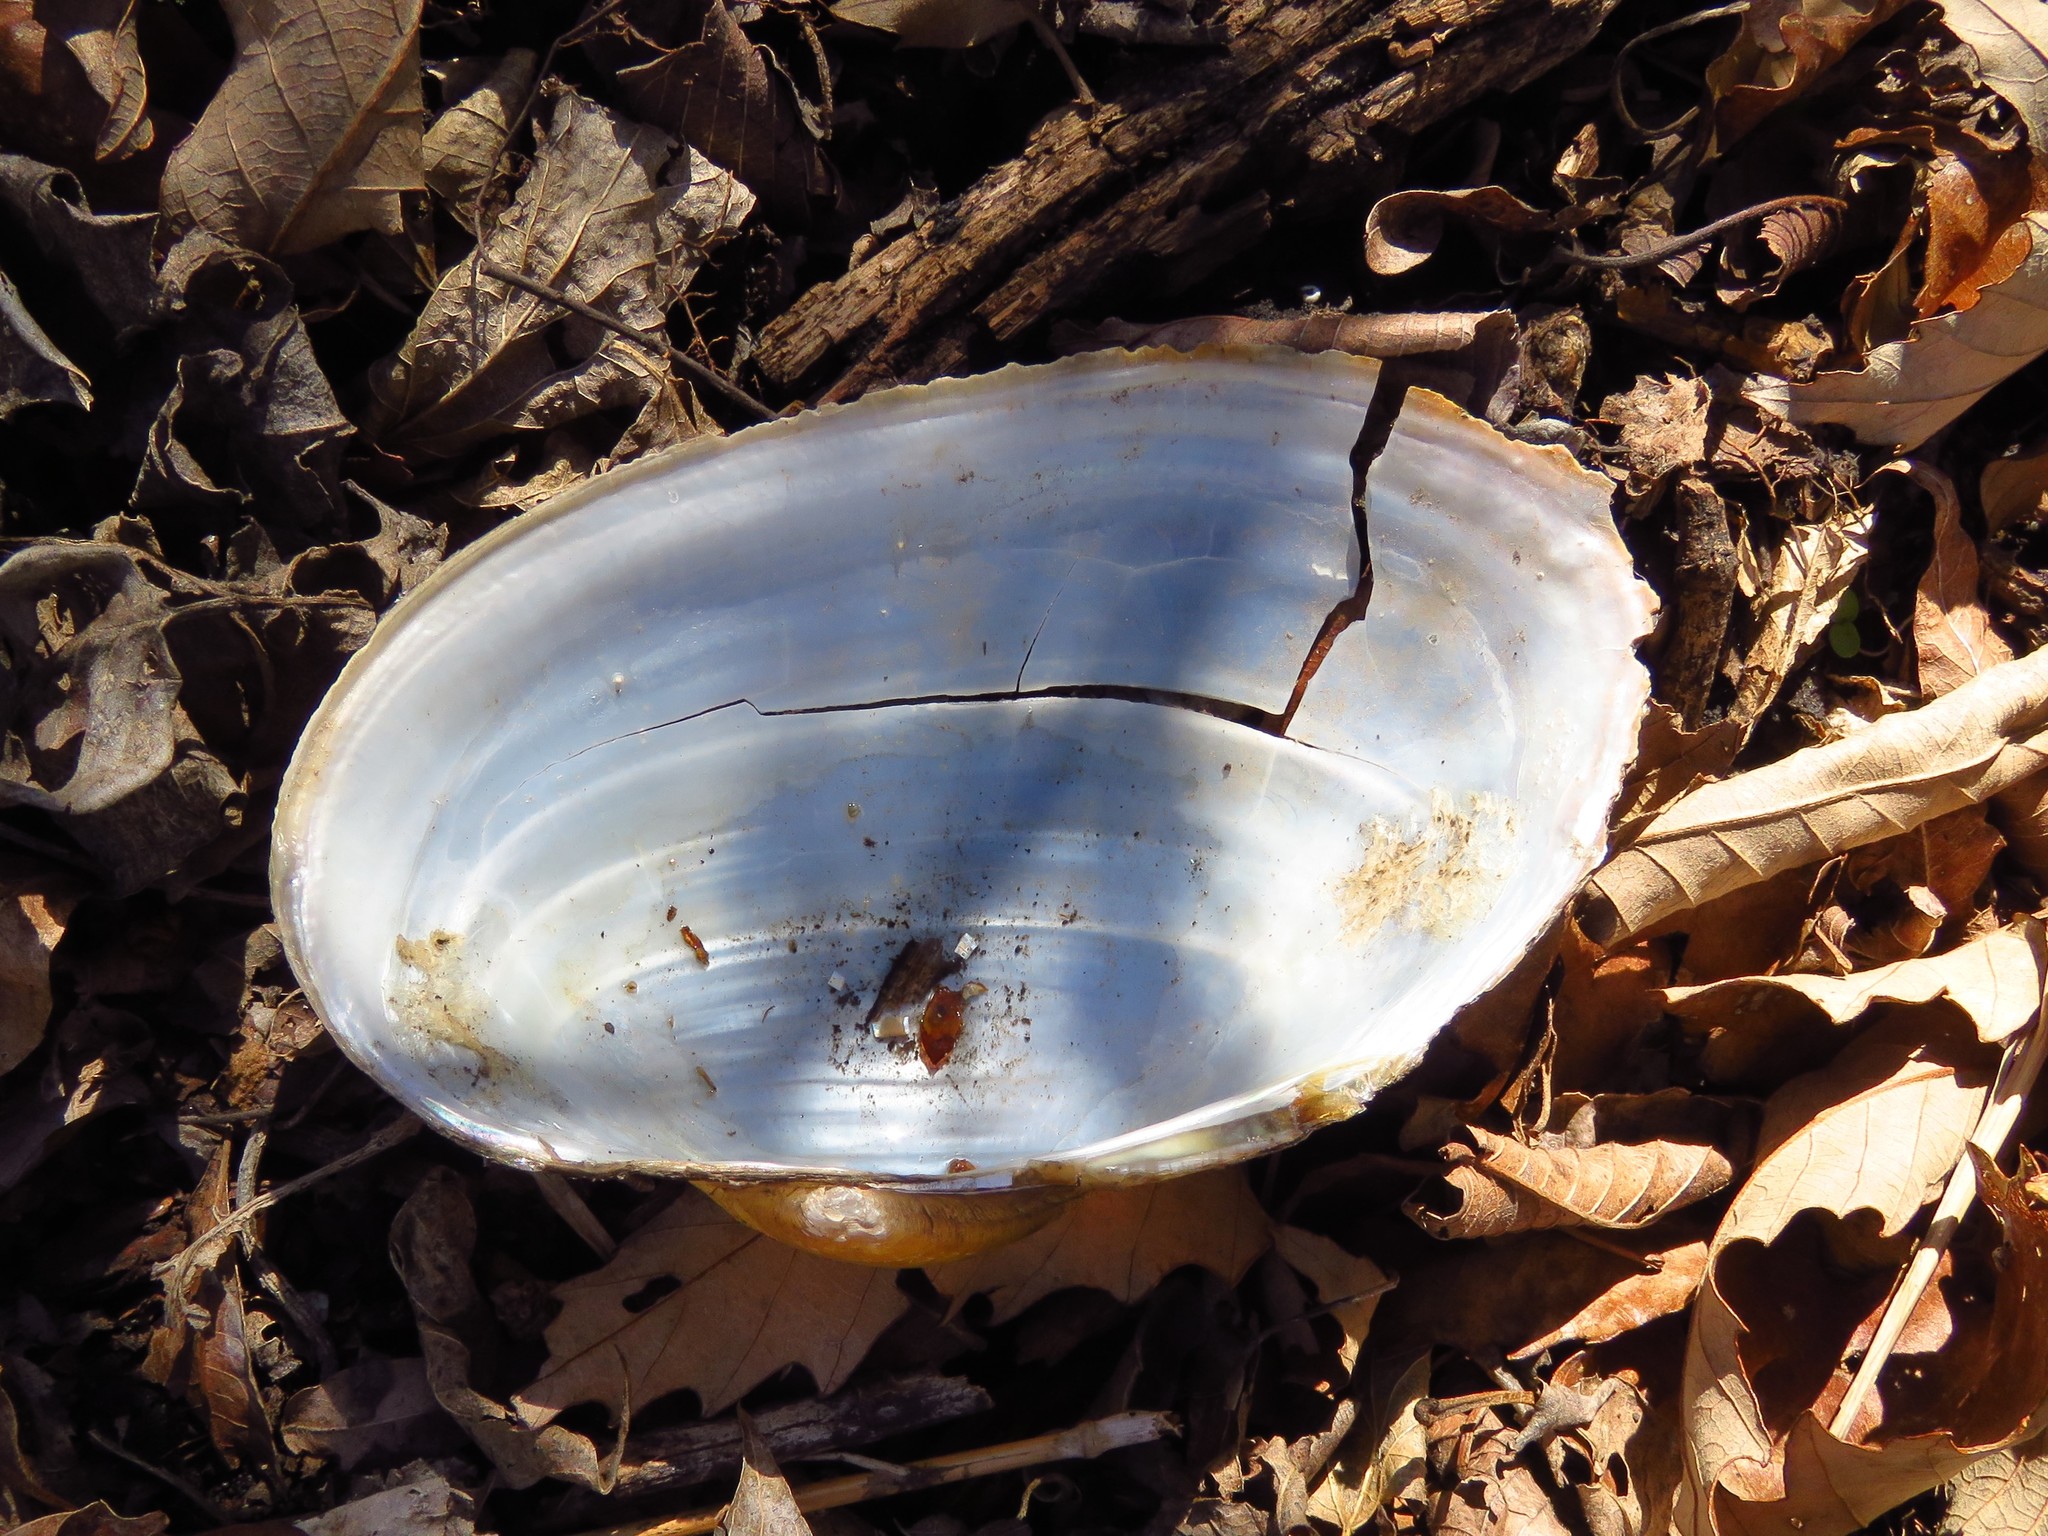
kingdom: Animalia
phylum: Mollusca
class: Bivalvia
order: Unionida
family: Unionidae
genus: Pyganodon
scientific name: Pyganodon grandis
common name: Giant floater
